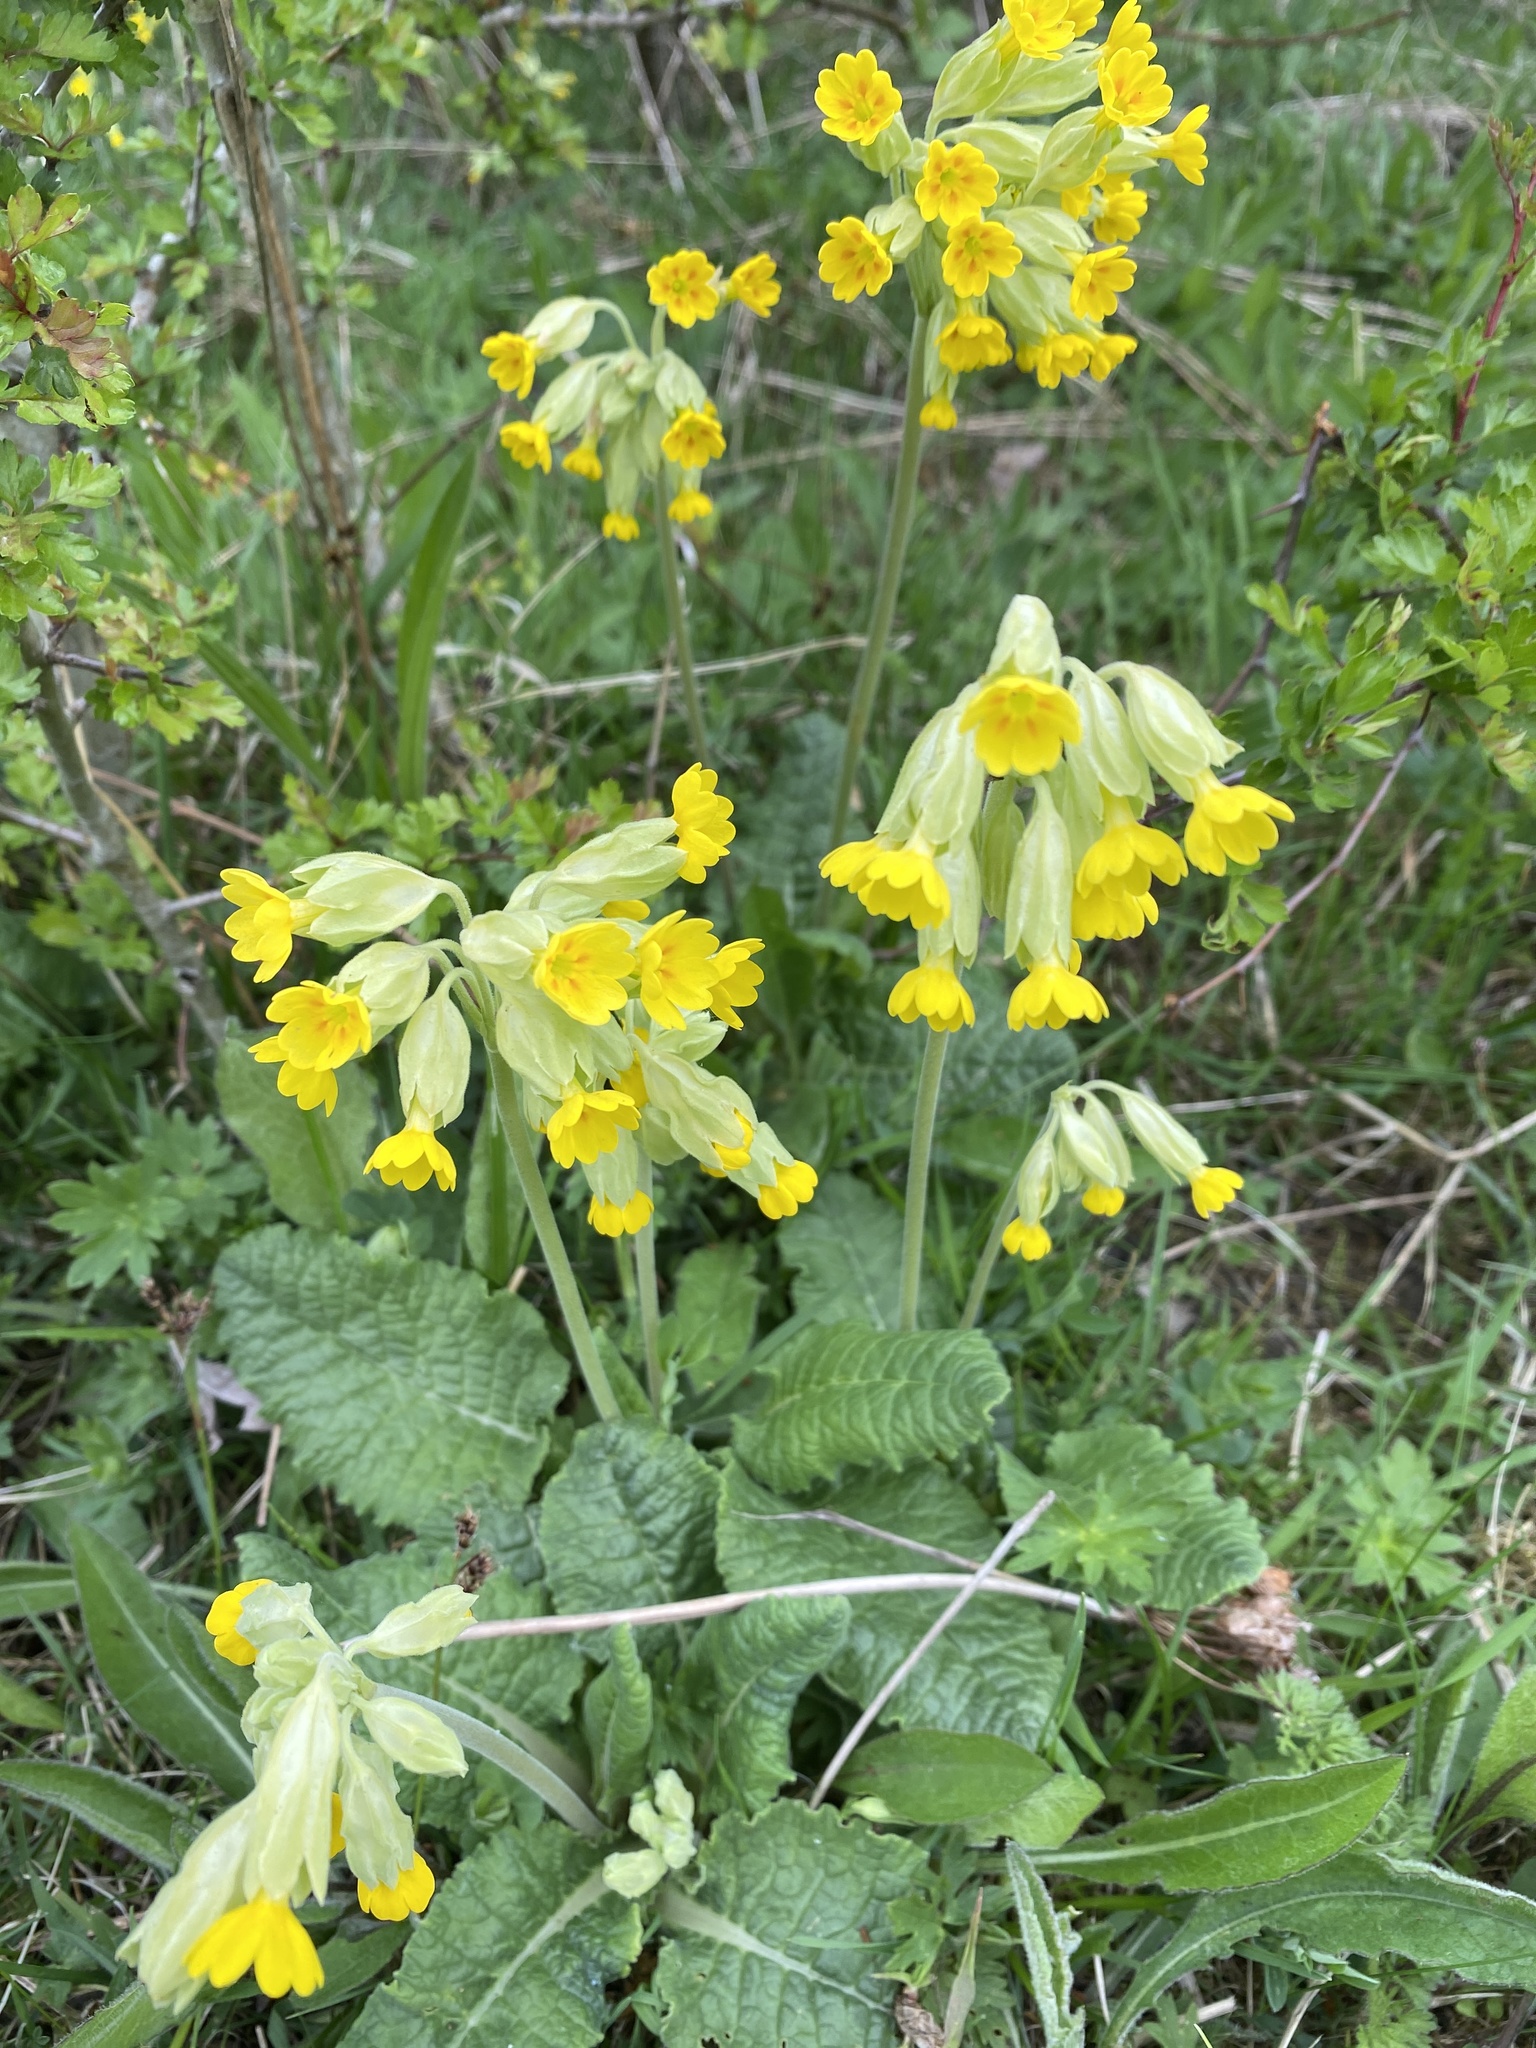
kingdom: Plantae
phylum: Tracheophyta
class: Magnoliopsida
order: Ericales
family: Primulaceae
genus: Primula
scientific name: Primula veris
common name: Cowslip
